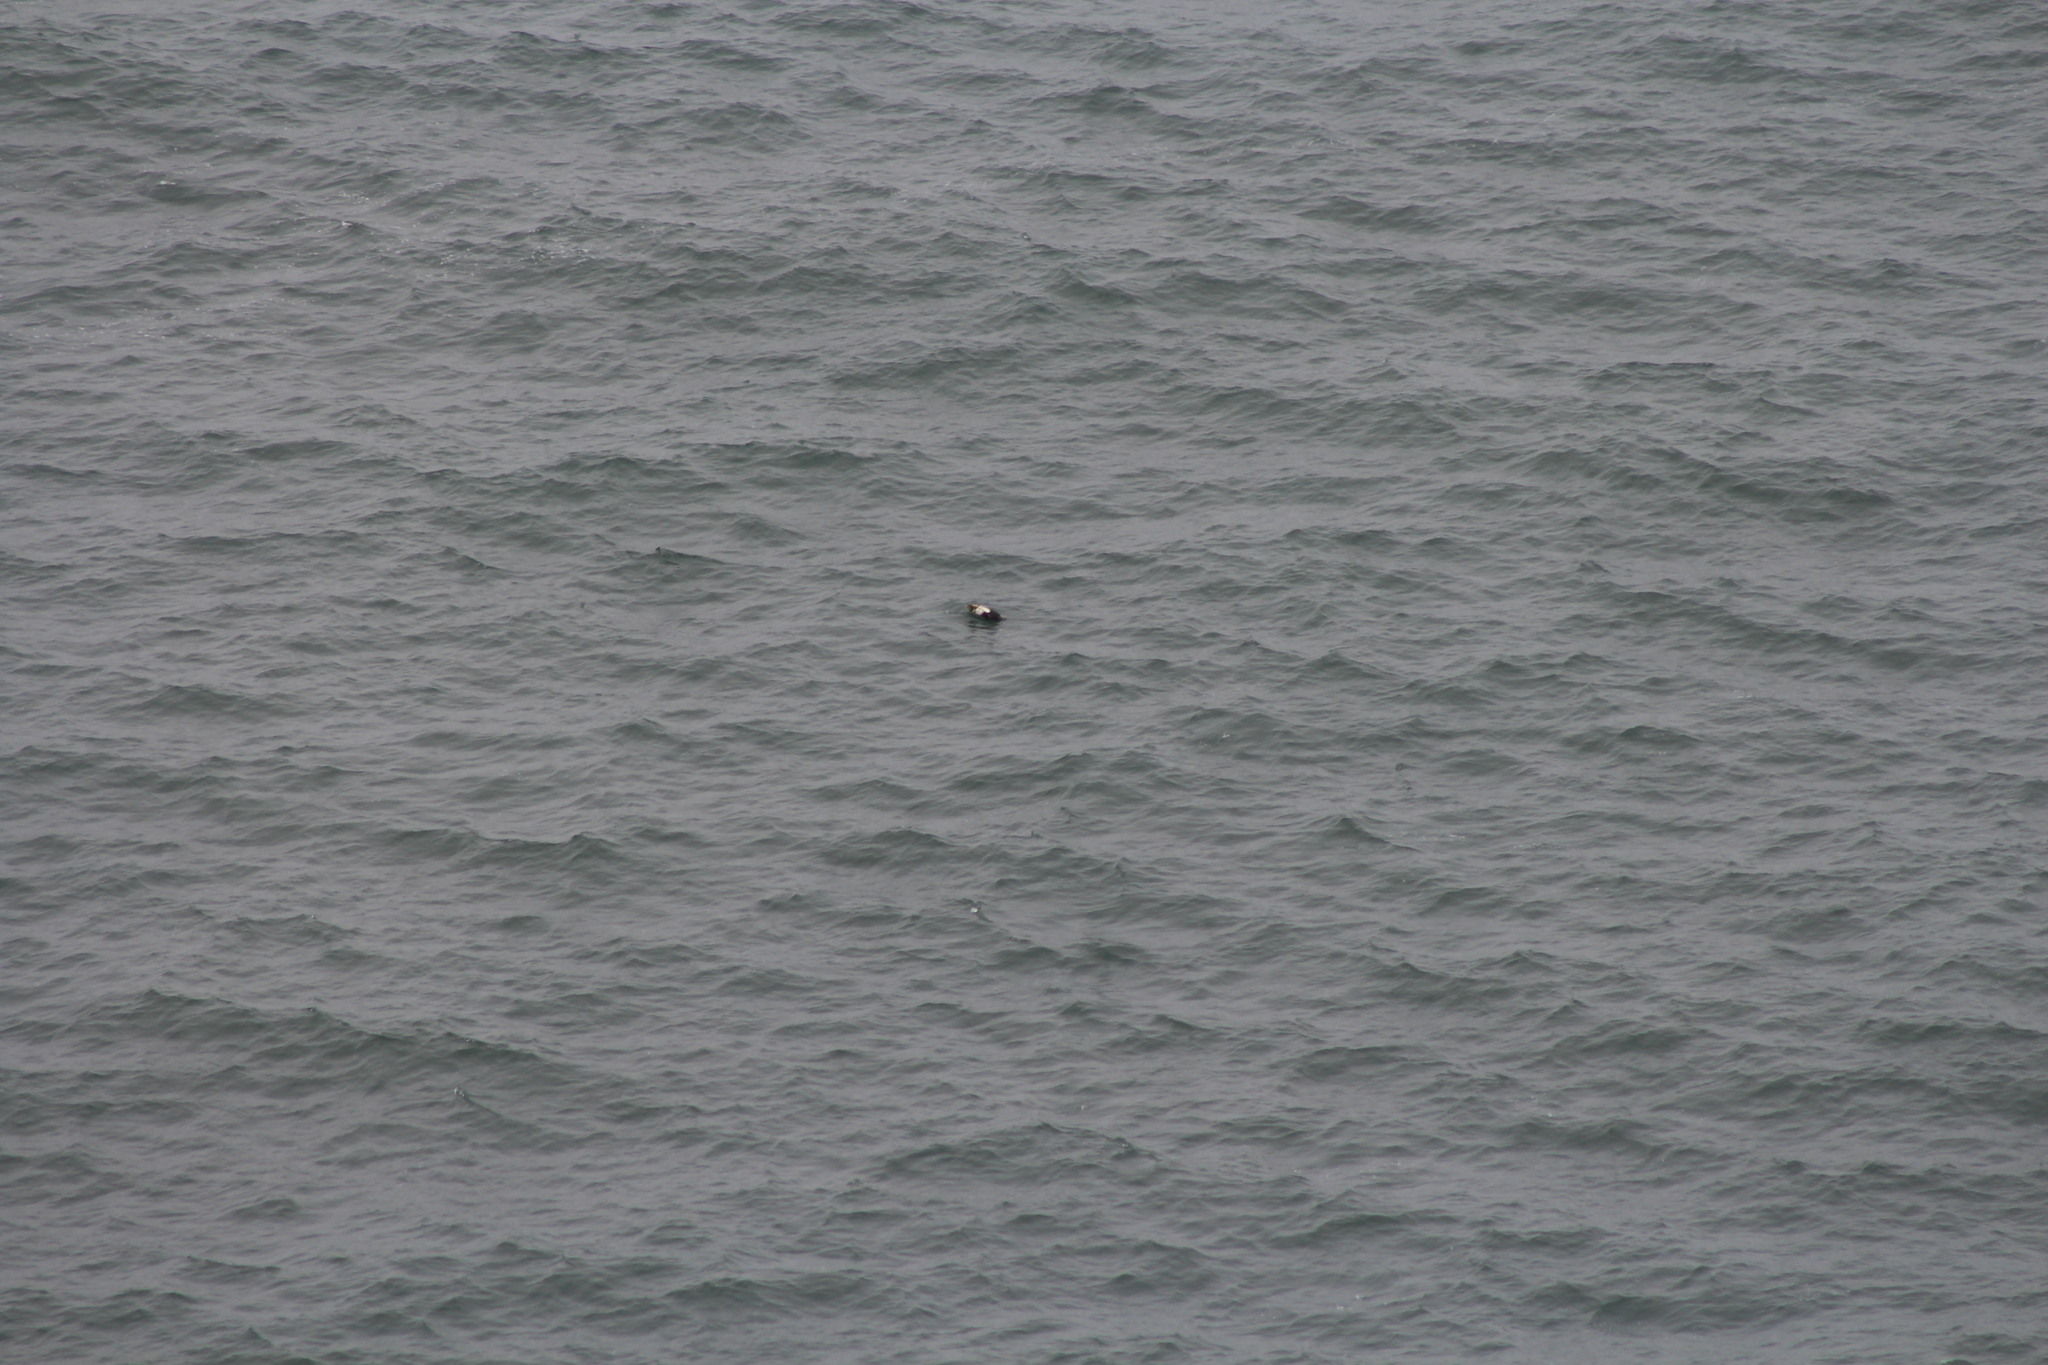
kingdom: Animalia
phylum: Chordata
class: Aves
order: Charadriiformes
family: Alcidae
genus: Cepphus
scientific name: Cepphus columba
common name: Pigeon guillemot
